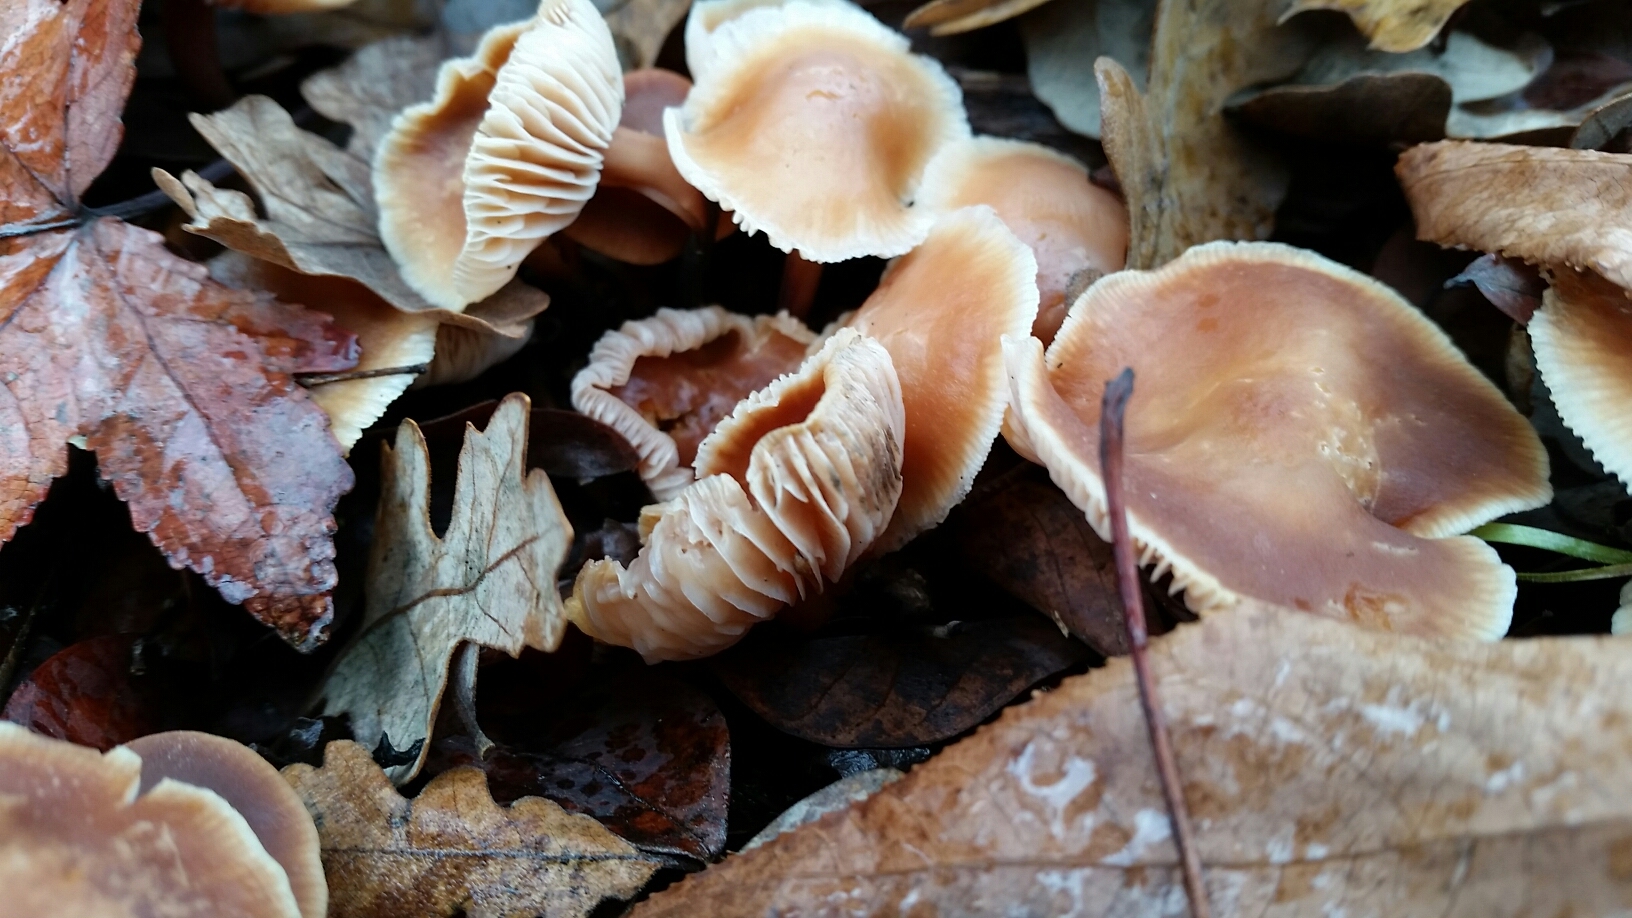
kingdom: Fungi
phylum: Basidiomycota
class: Agaricomycetes
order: Agaricales
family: Omphalotaceae
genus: Gymnopus
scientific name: Gymnopus brassicolens
